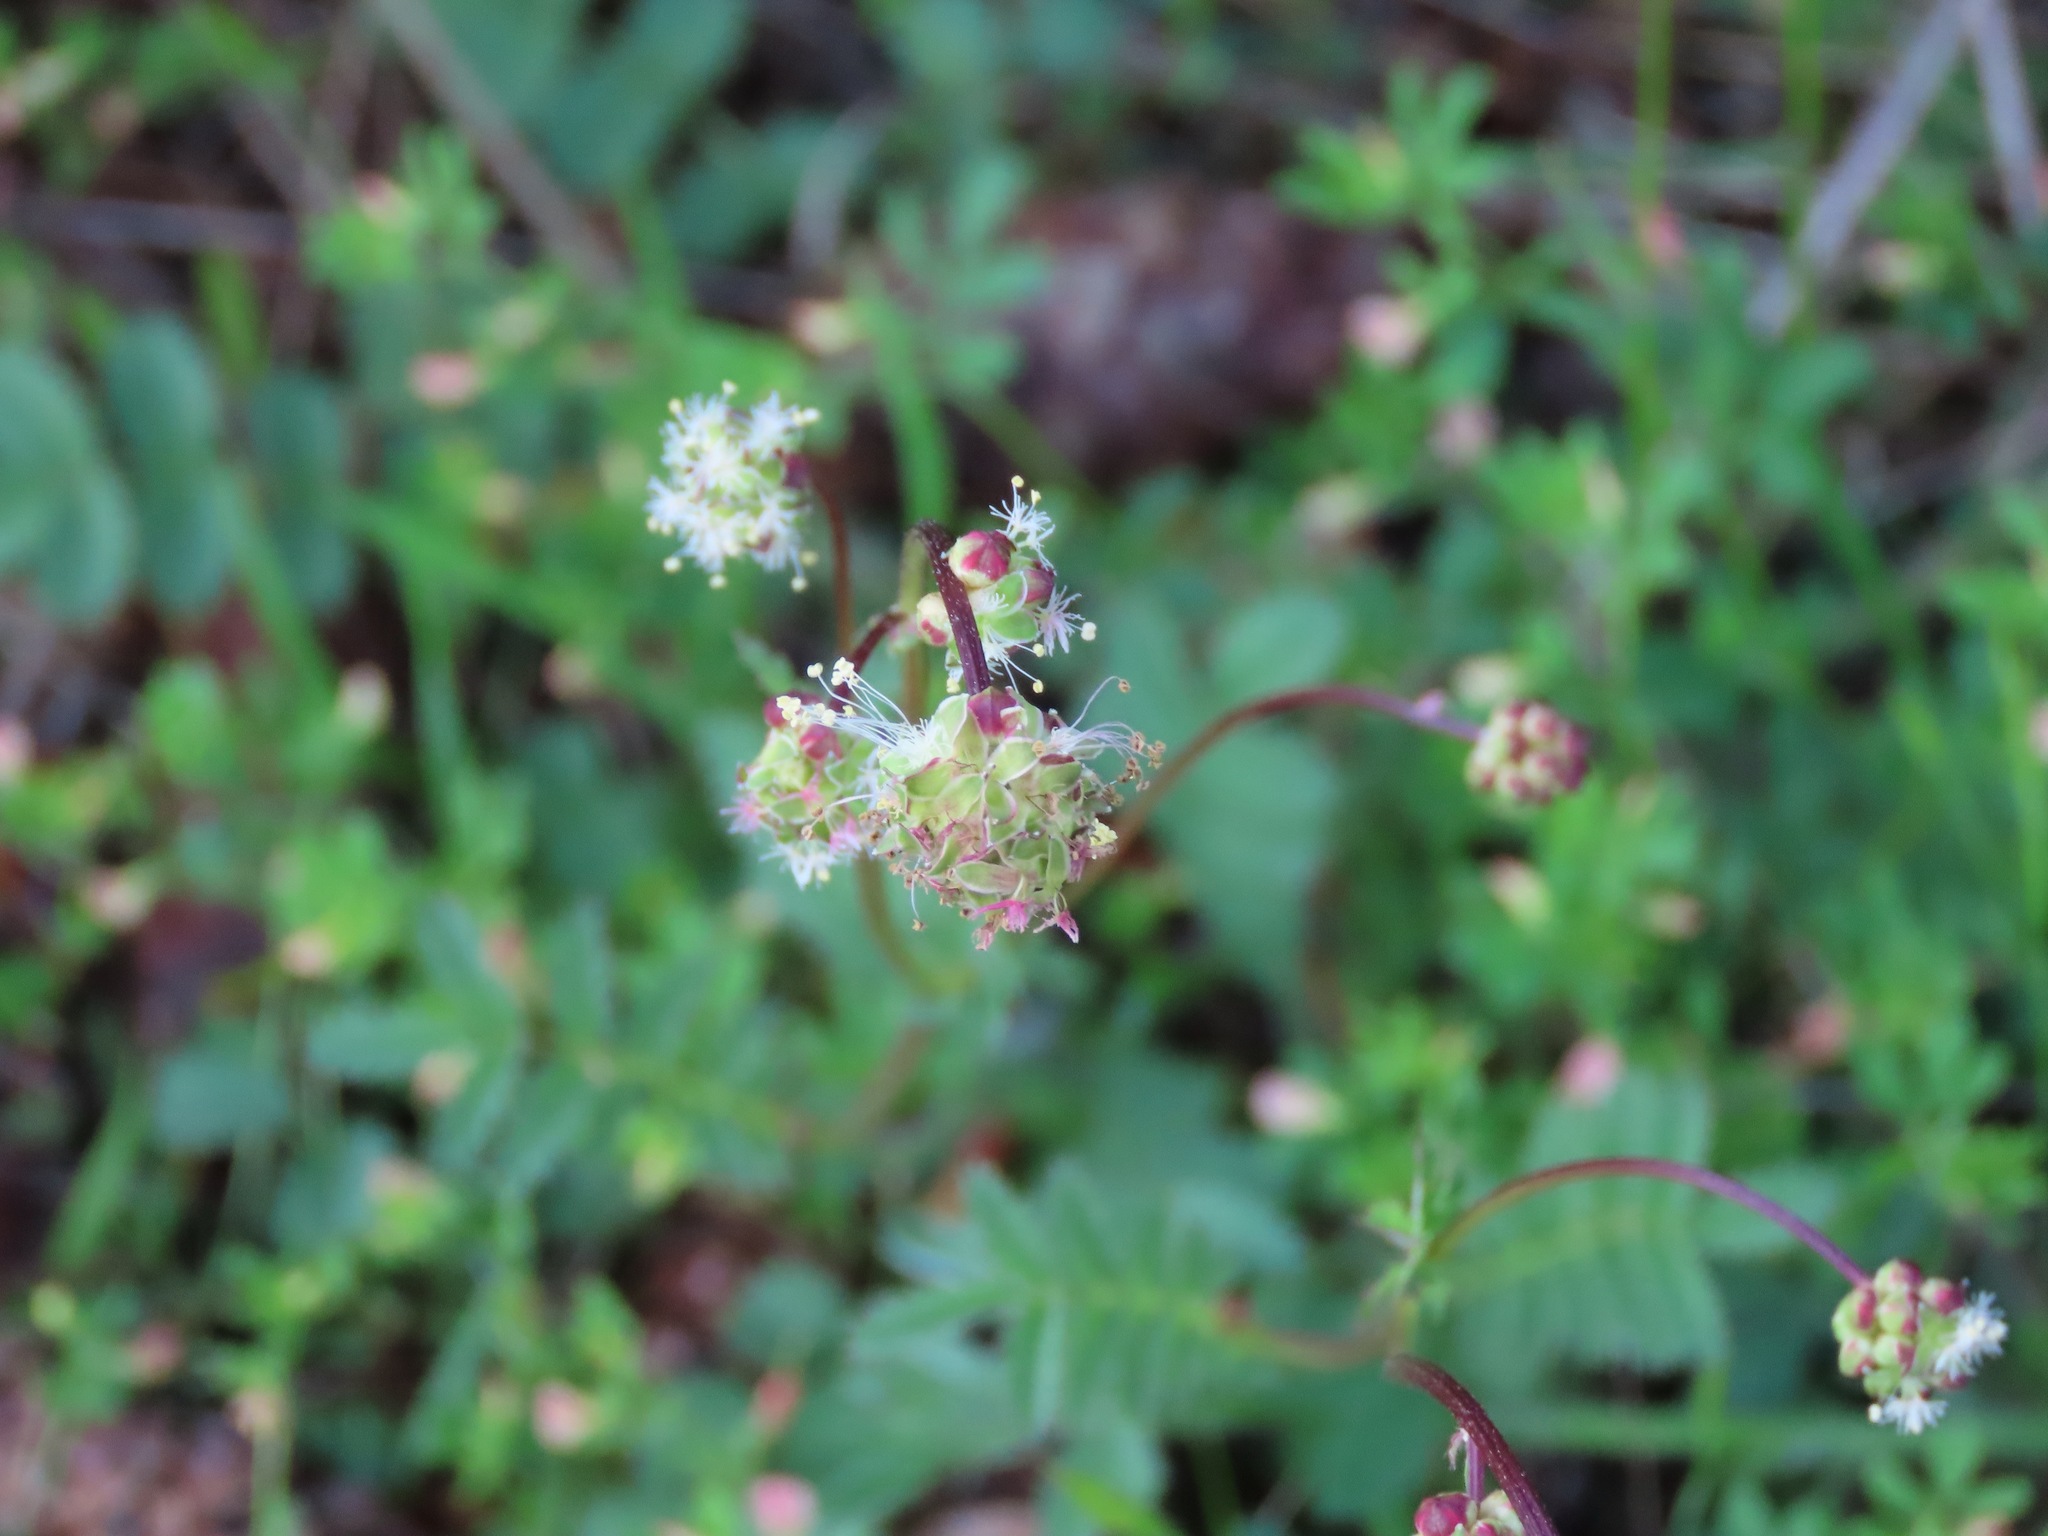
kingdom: Plantae
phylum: Tracheophyta
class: Magnoliopsida
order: Rosales
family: Rosaceae
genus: Poterium
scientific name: Poterium sanguisorba
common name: Salad burnet
